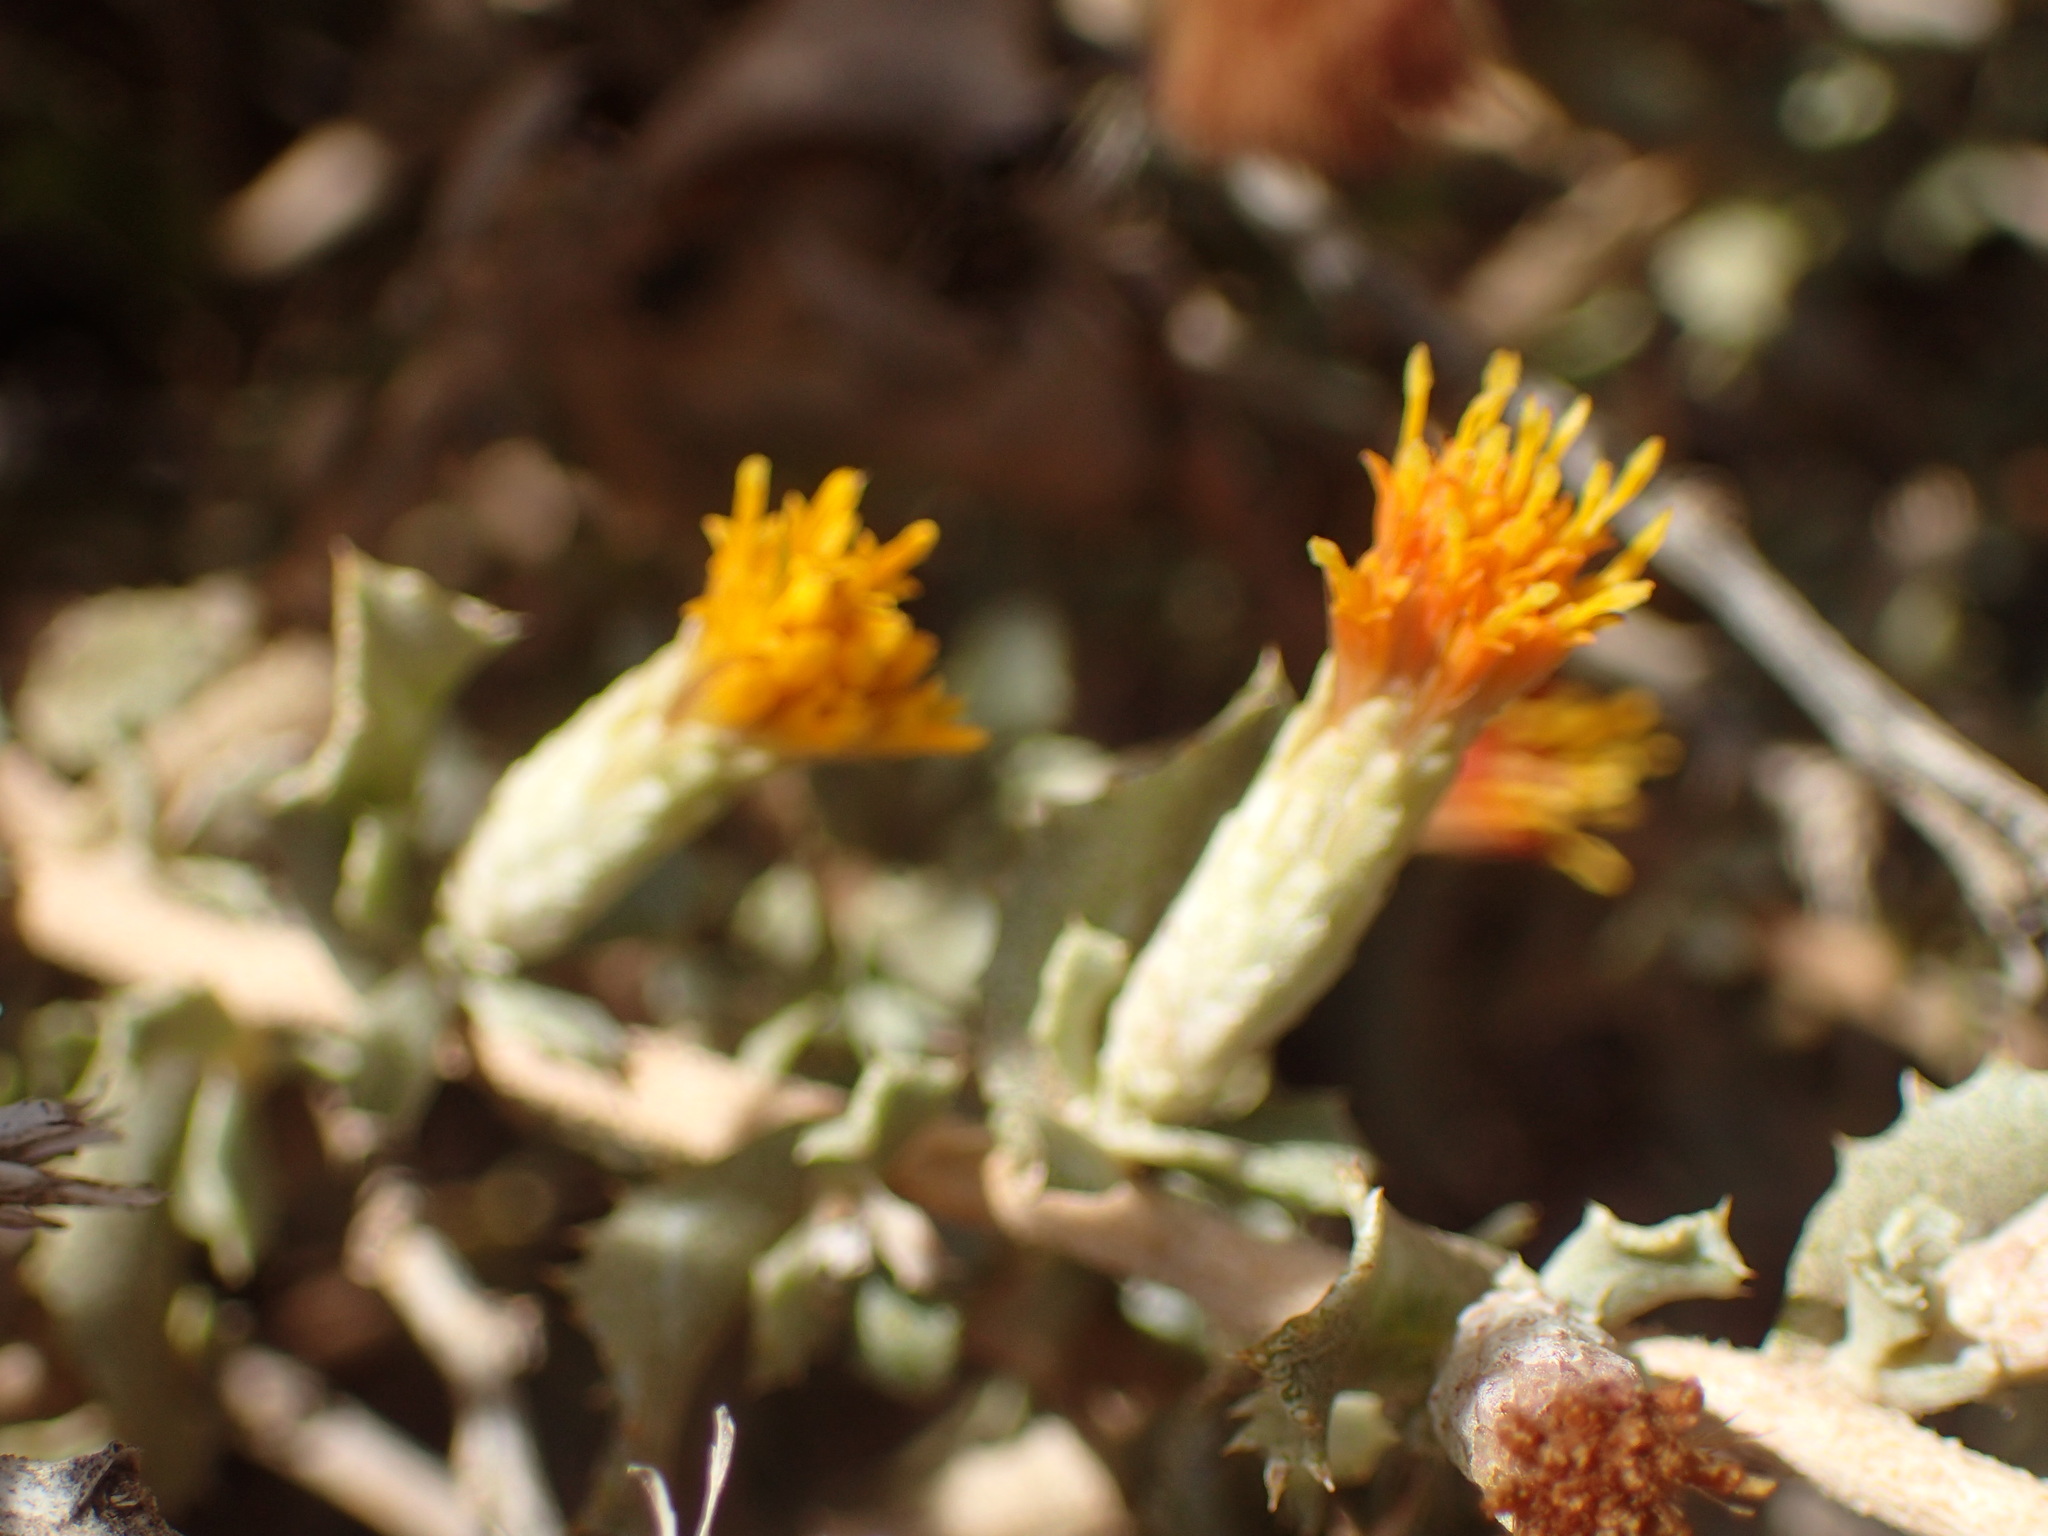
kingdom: Plantae
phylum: Tracheophyta
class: Magnoliopsida
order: Asterales
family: Asteraceae
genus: Hazardia
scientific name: Hazardia squarrosa
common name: Saw-tooth goldenbush
